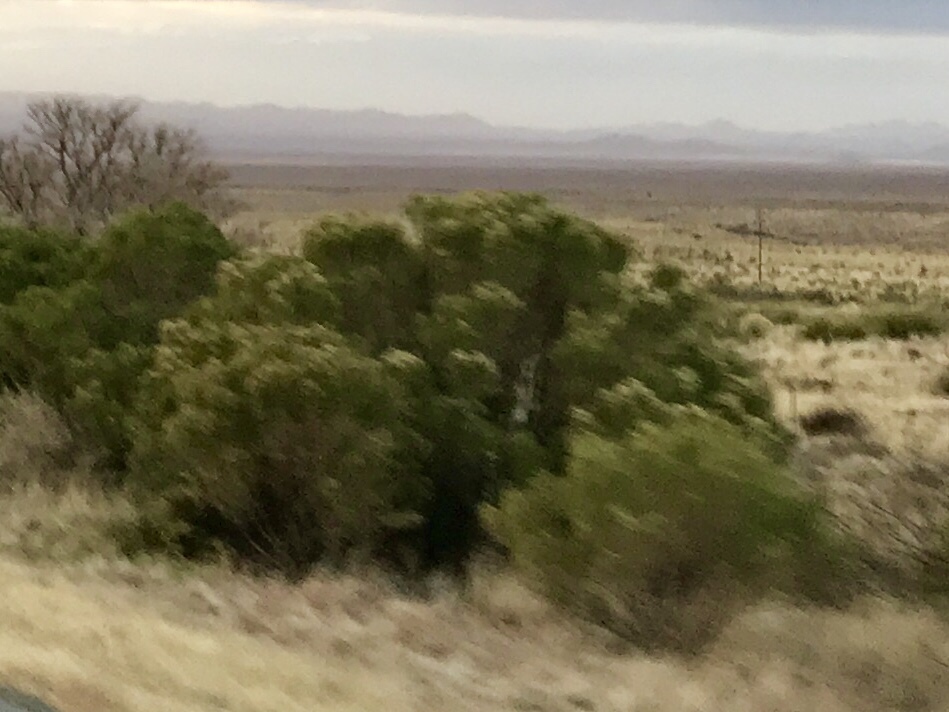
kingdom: Plantae
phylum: Tracheophyta
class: Magnoliopsida
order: Asterales
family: Asteraceae
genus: Baccharis
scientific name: Baccharis sarothroides
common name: Desert-broom
